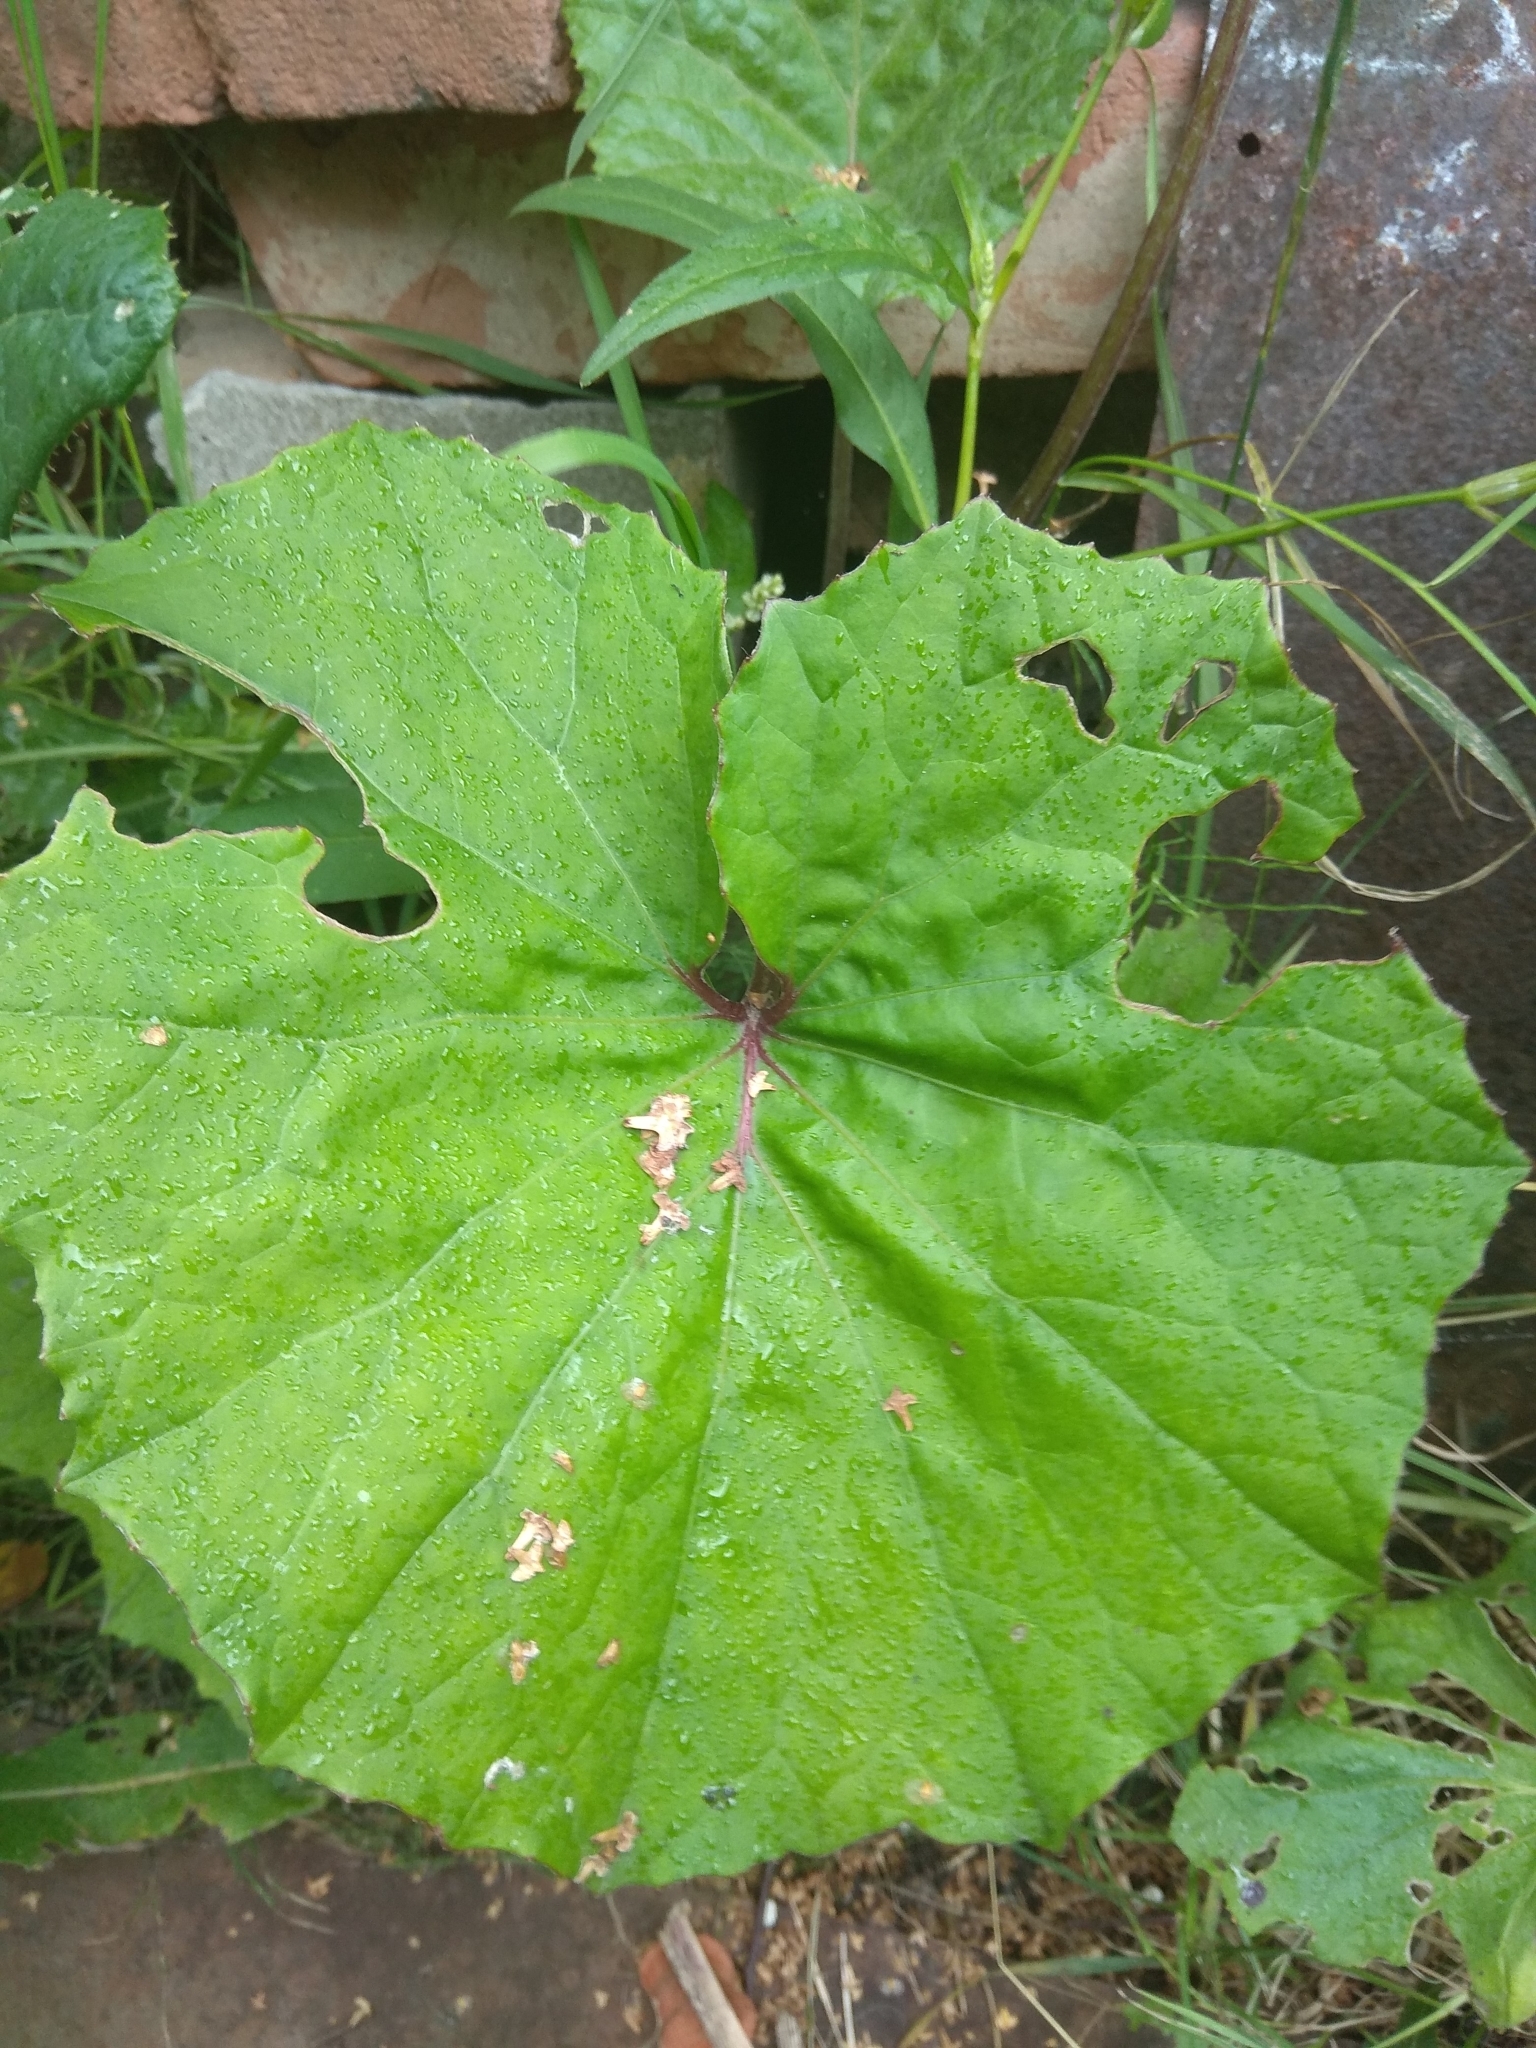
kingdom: Plantae
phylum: Tracheophyta
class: Magnoliopsida
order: Asterales
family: Asteraceae
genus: Tussilago
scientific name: Tussilago farfara
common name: Coltsfoot
